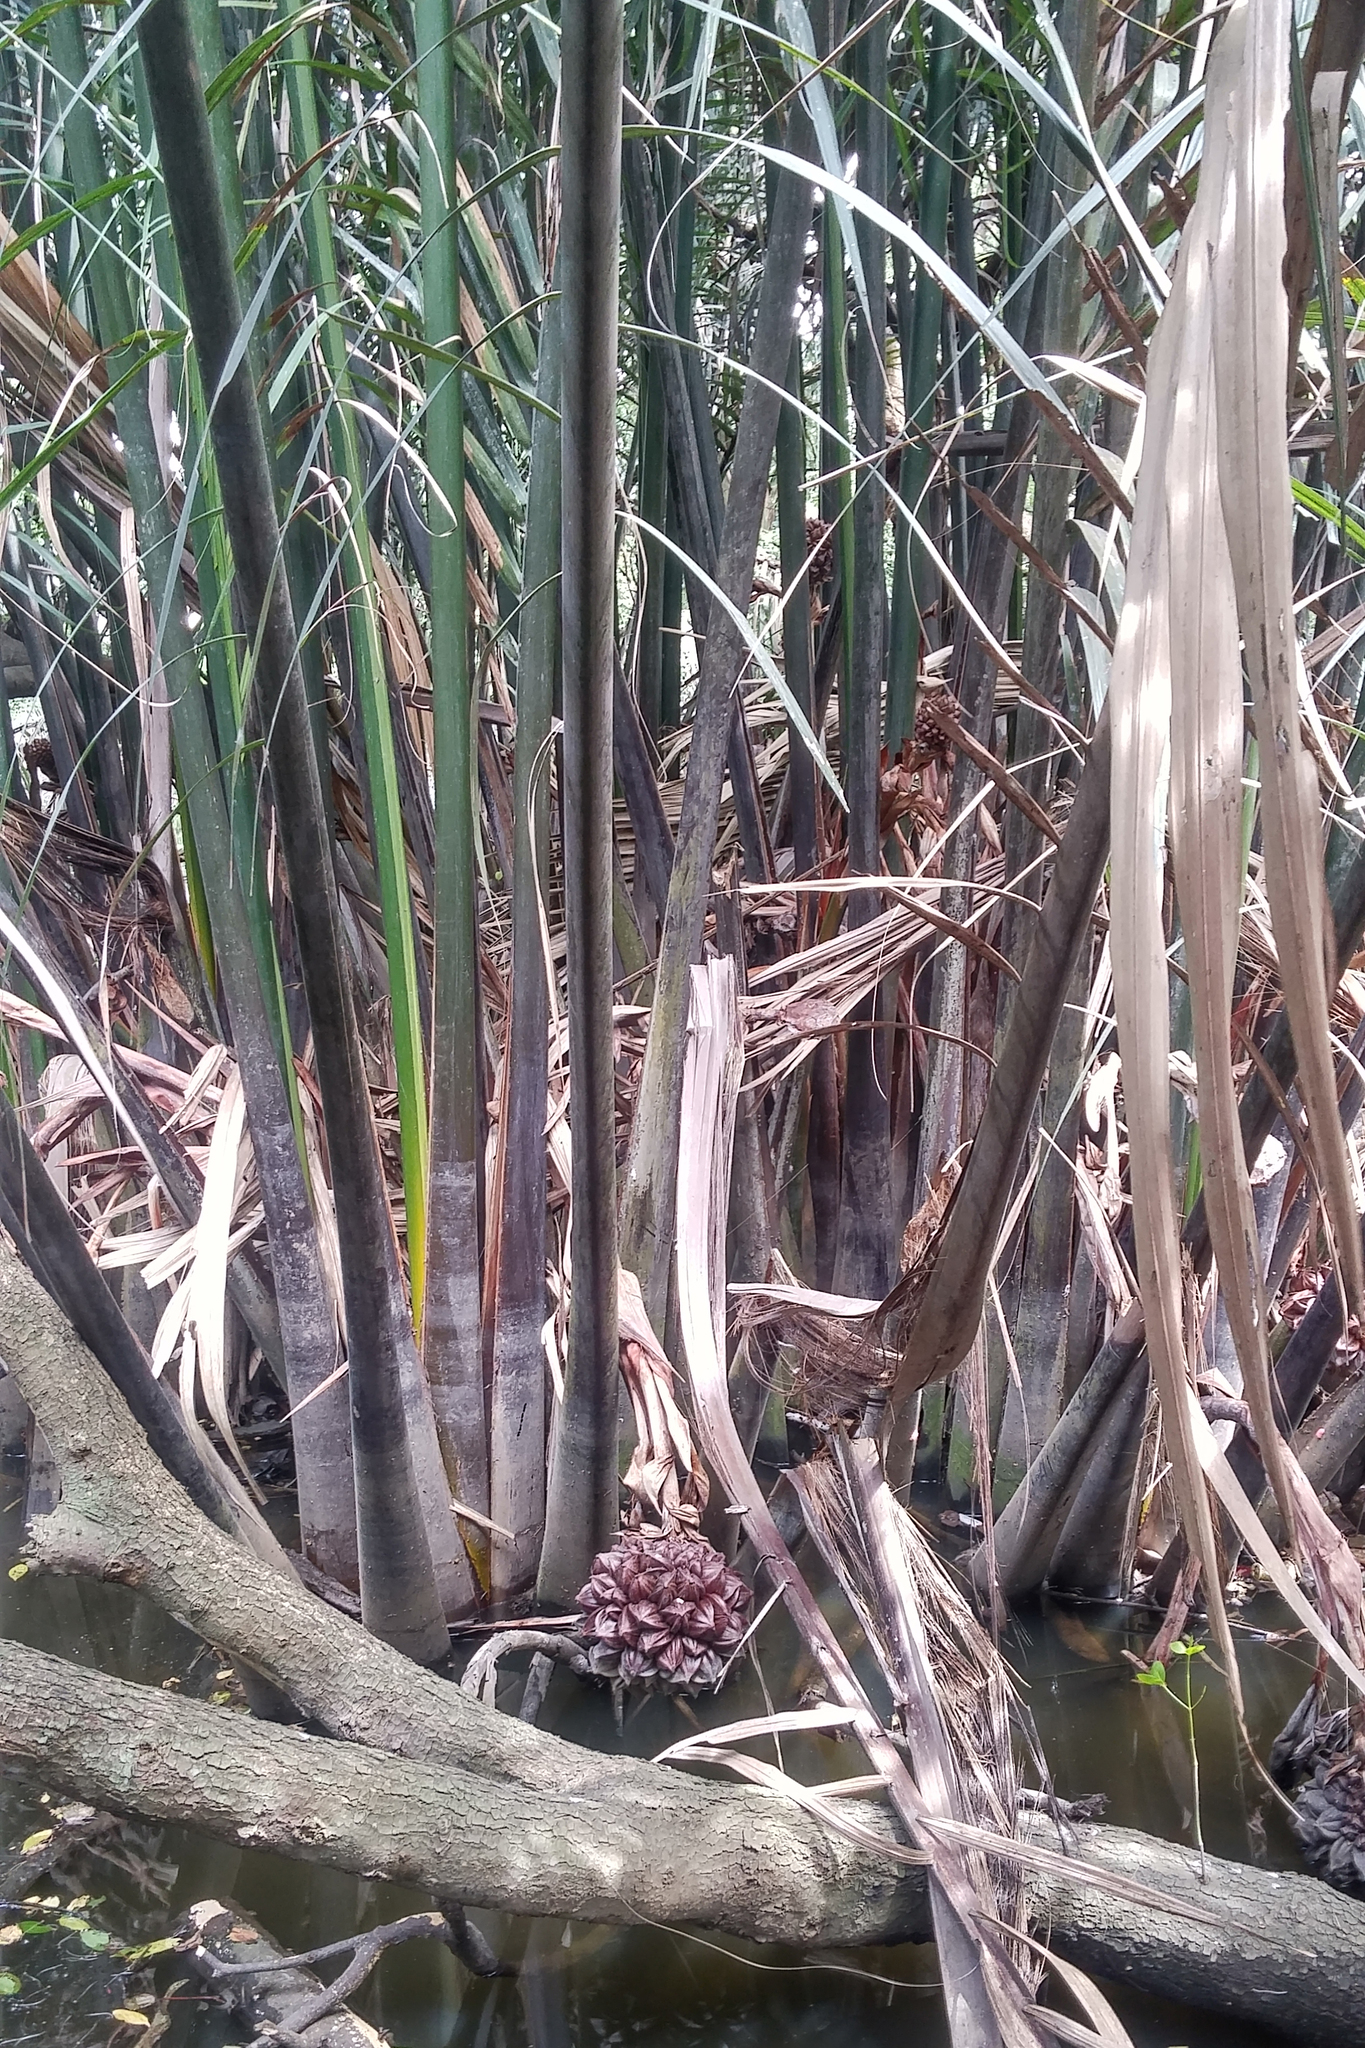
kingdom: Plantae
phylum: Tracheophyta
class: Liliopsida
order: Arecales
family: Arecaceae
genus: Nypa
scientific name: Nypa fruticans
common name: Mangrove palm
